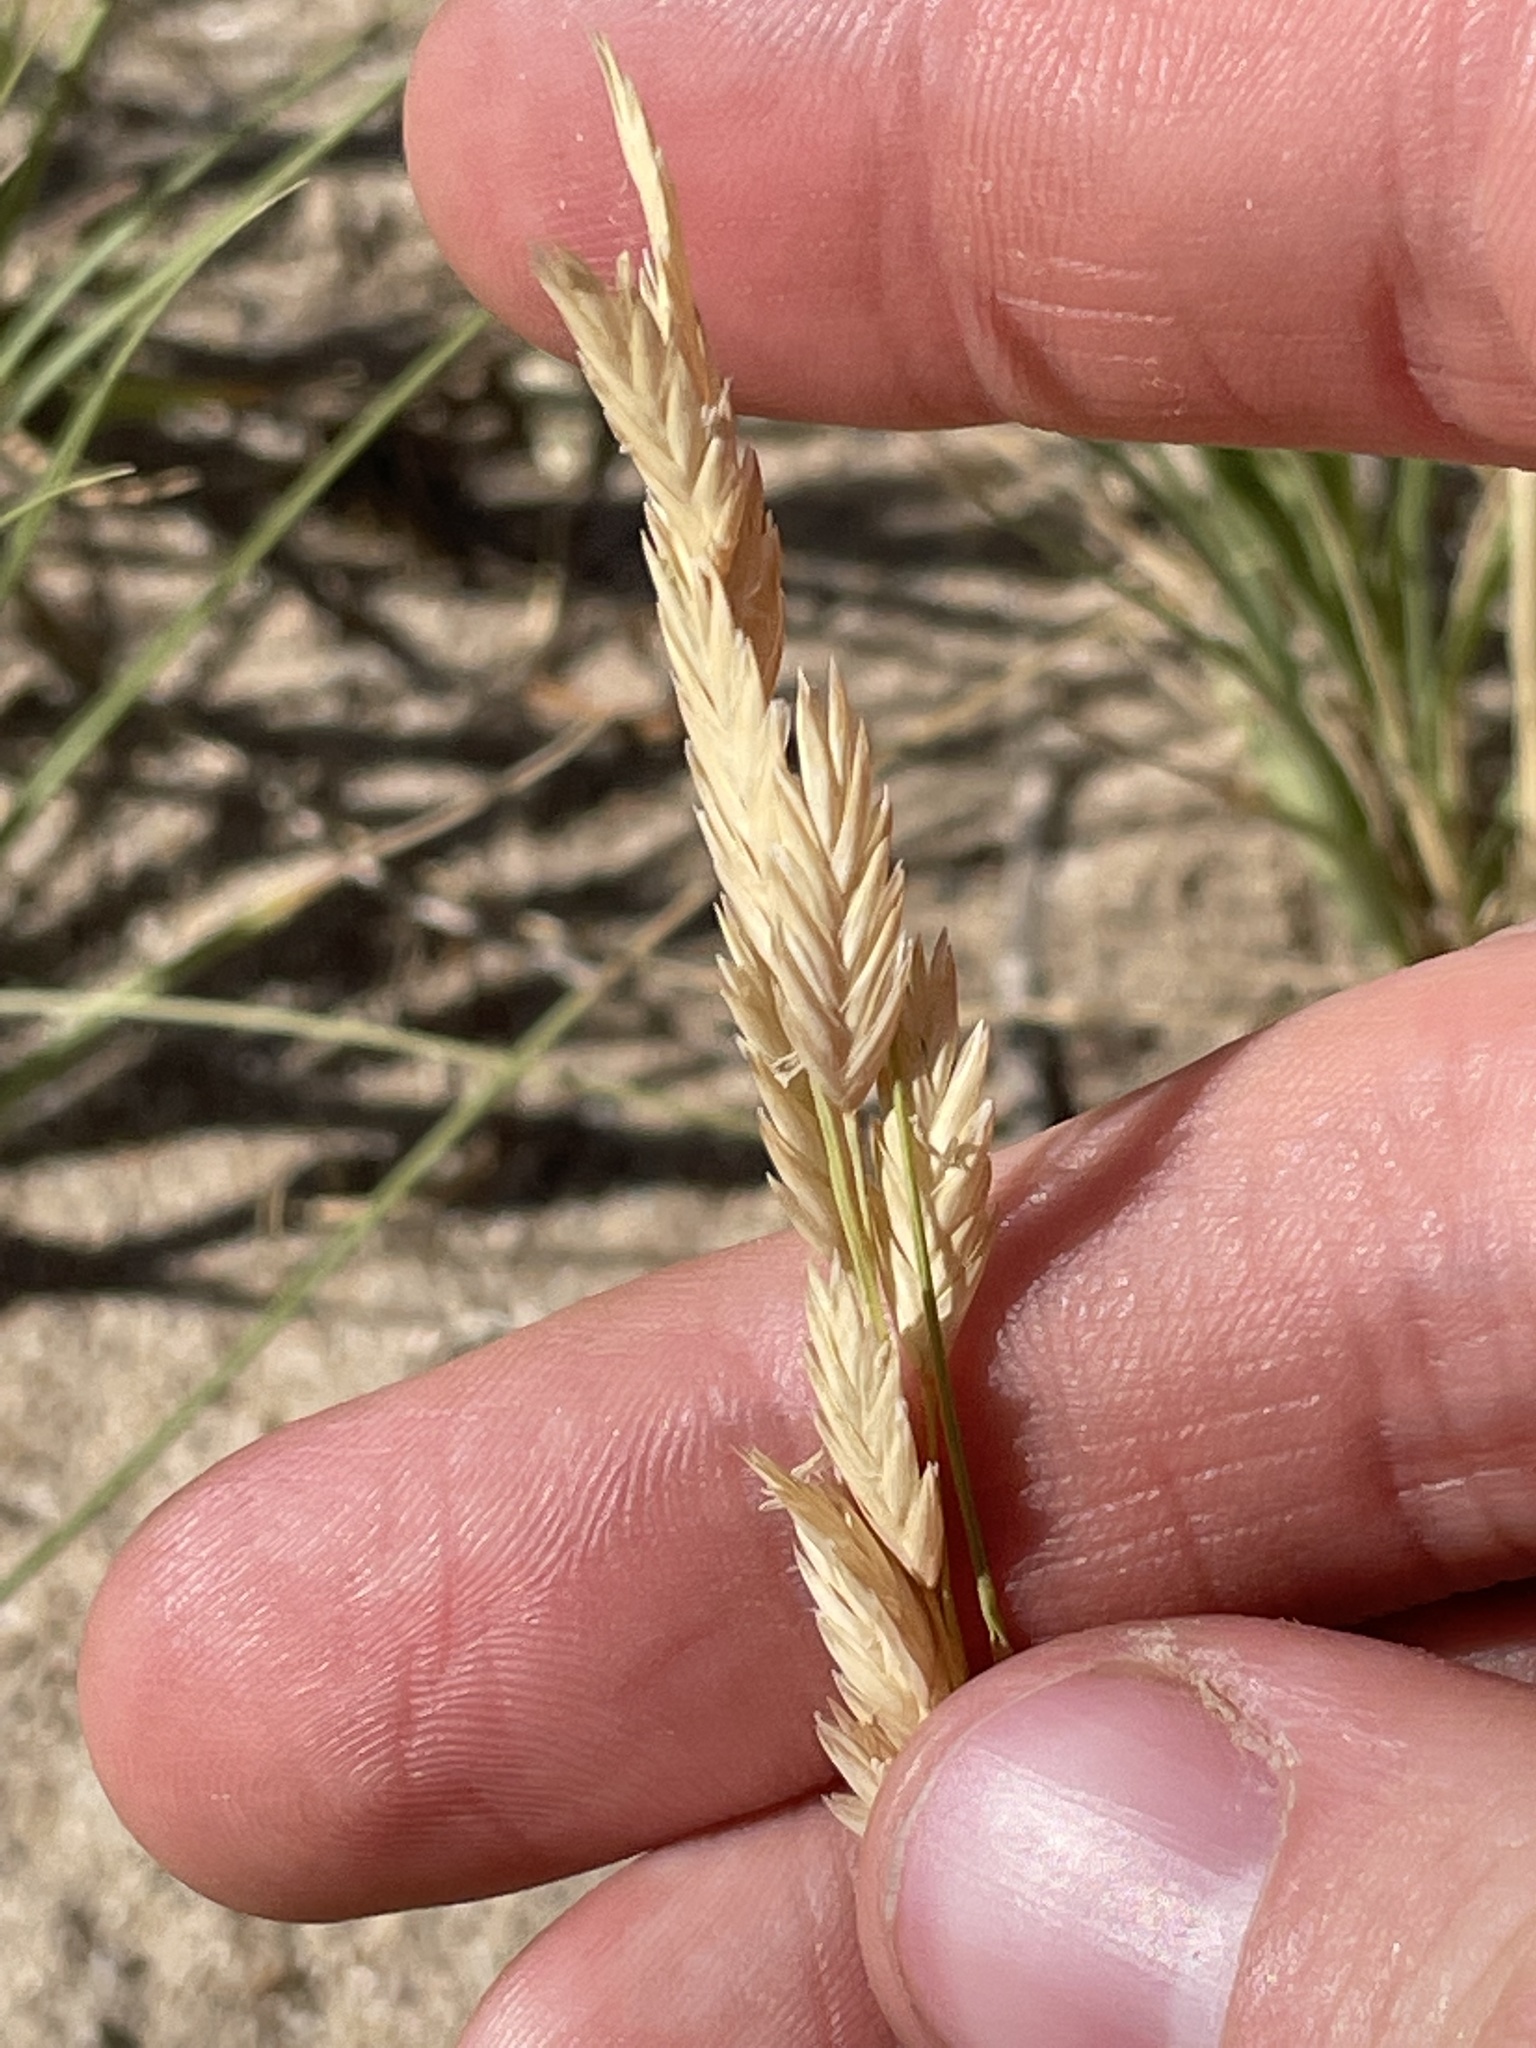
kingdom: Plantae
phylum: Tracheophyta
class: Liliopsida
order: Poales
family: Poaceae
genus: Distichlis
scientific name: Distichlis spicata
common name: Saltgrass
